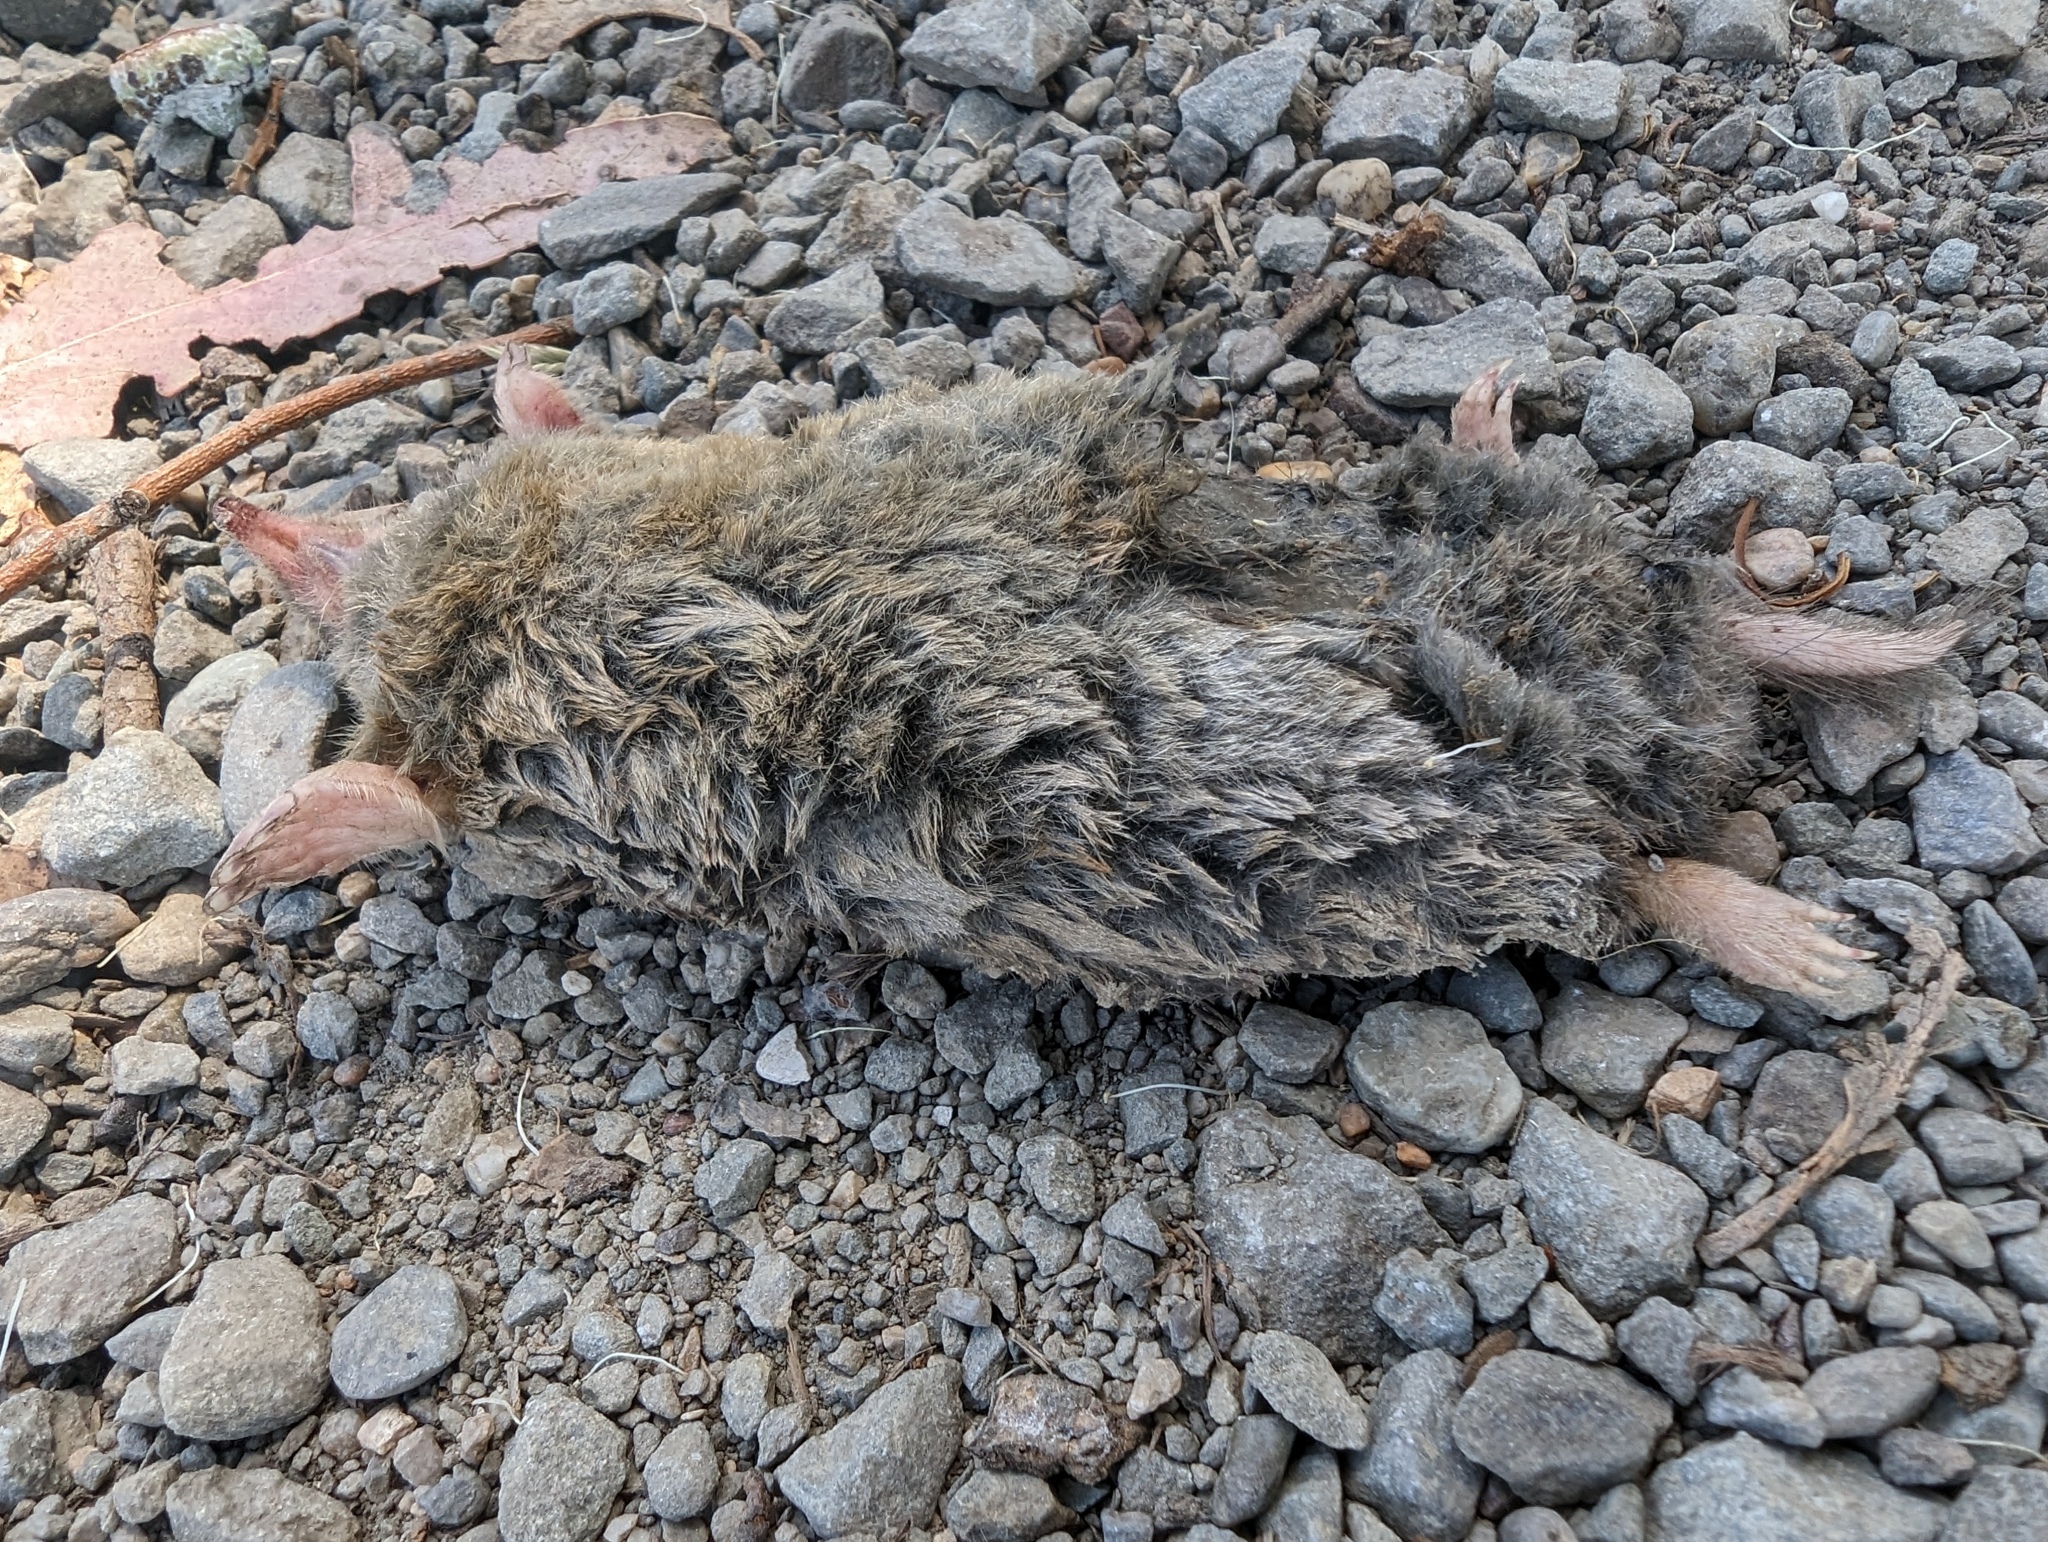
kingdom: Animalia
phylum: Chordata
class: Mammalia
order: Soricomorpha
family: Talpidae
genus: Scapanus
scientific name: Scapanus latimanus
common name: Broad-footed mole
